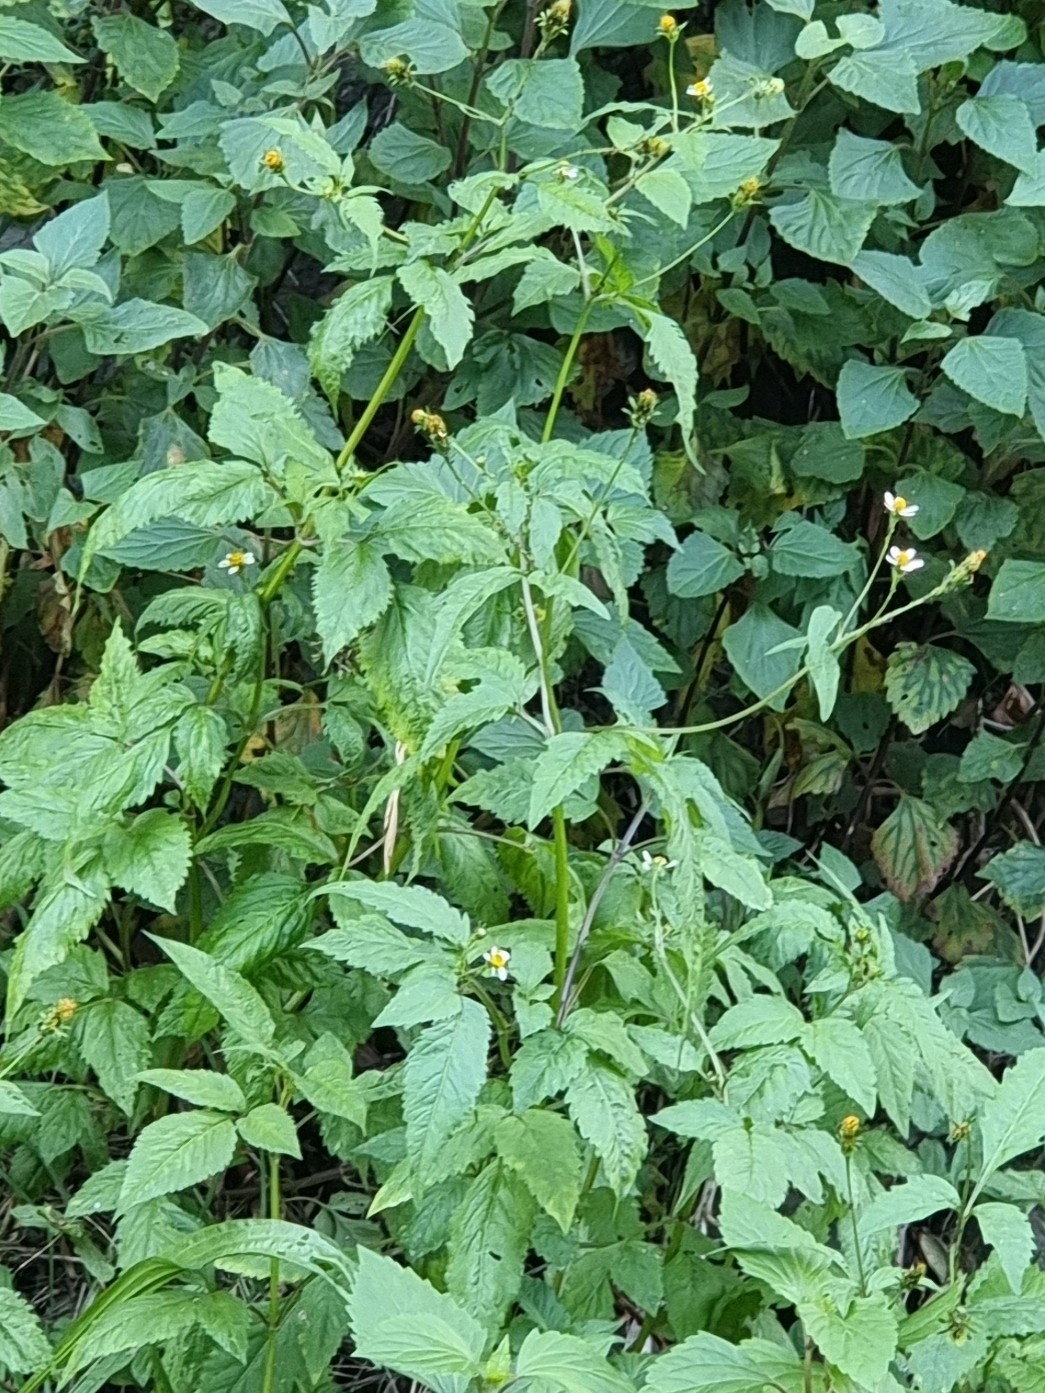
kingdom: Plantae
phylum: Tracheophyta
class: Magnoliopsida
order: Asterales
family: Asteraceae
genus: Bidens
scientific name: Bidens pilosa
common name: Black-jack
